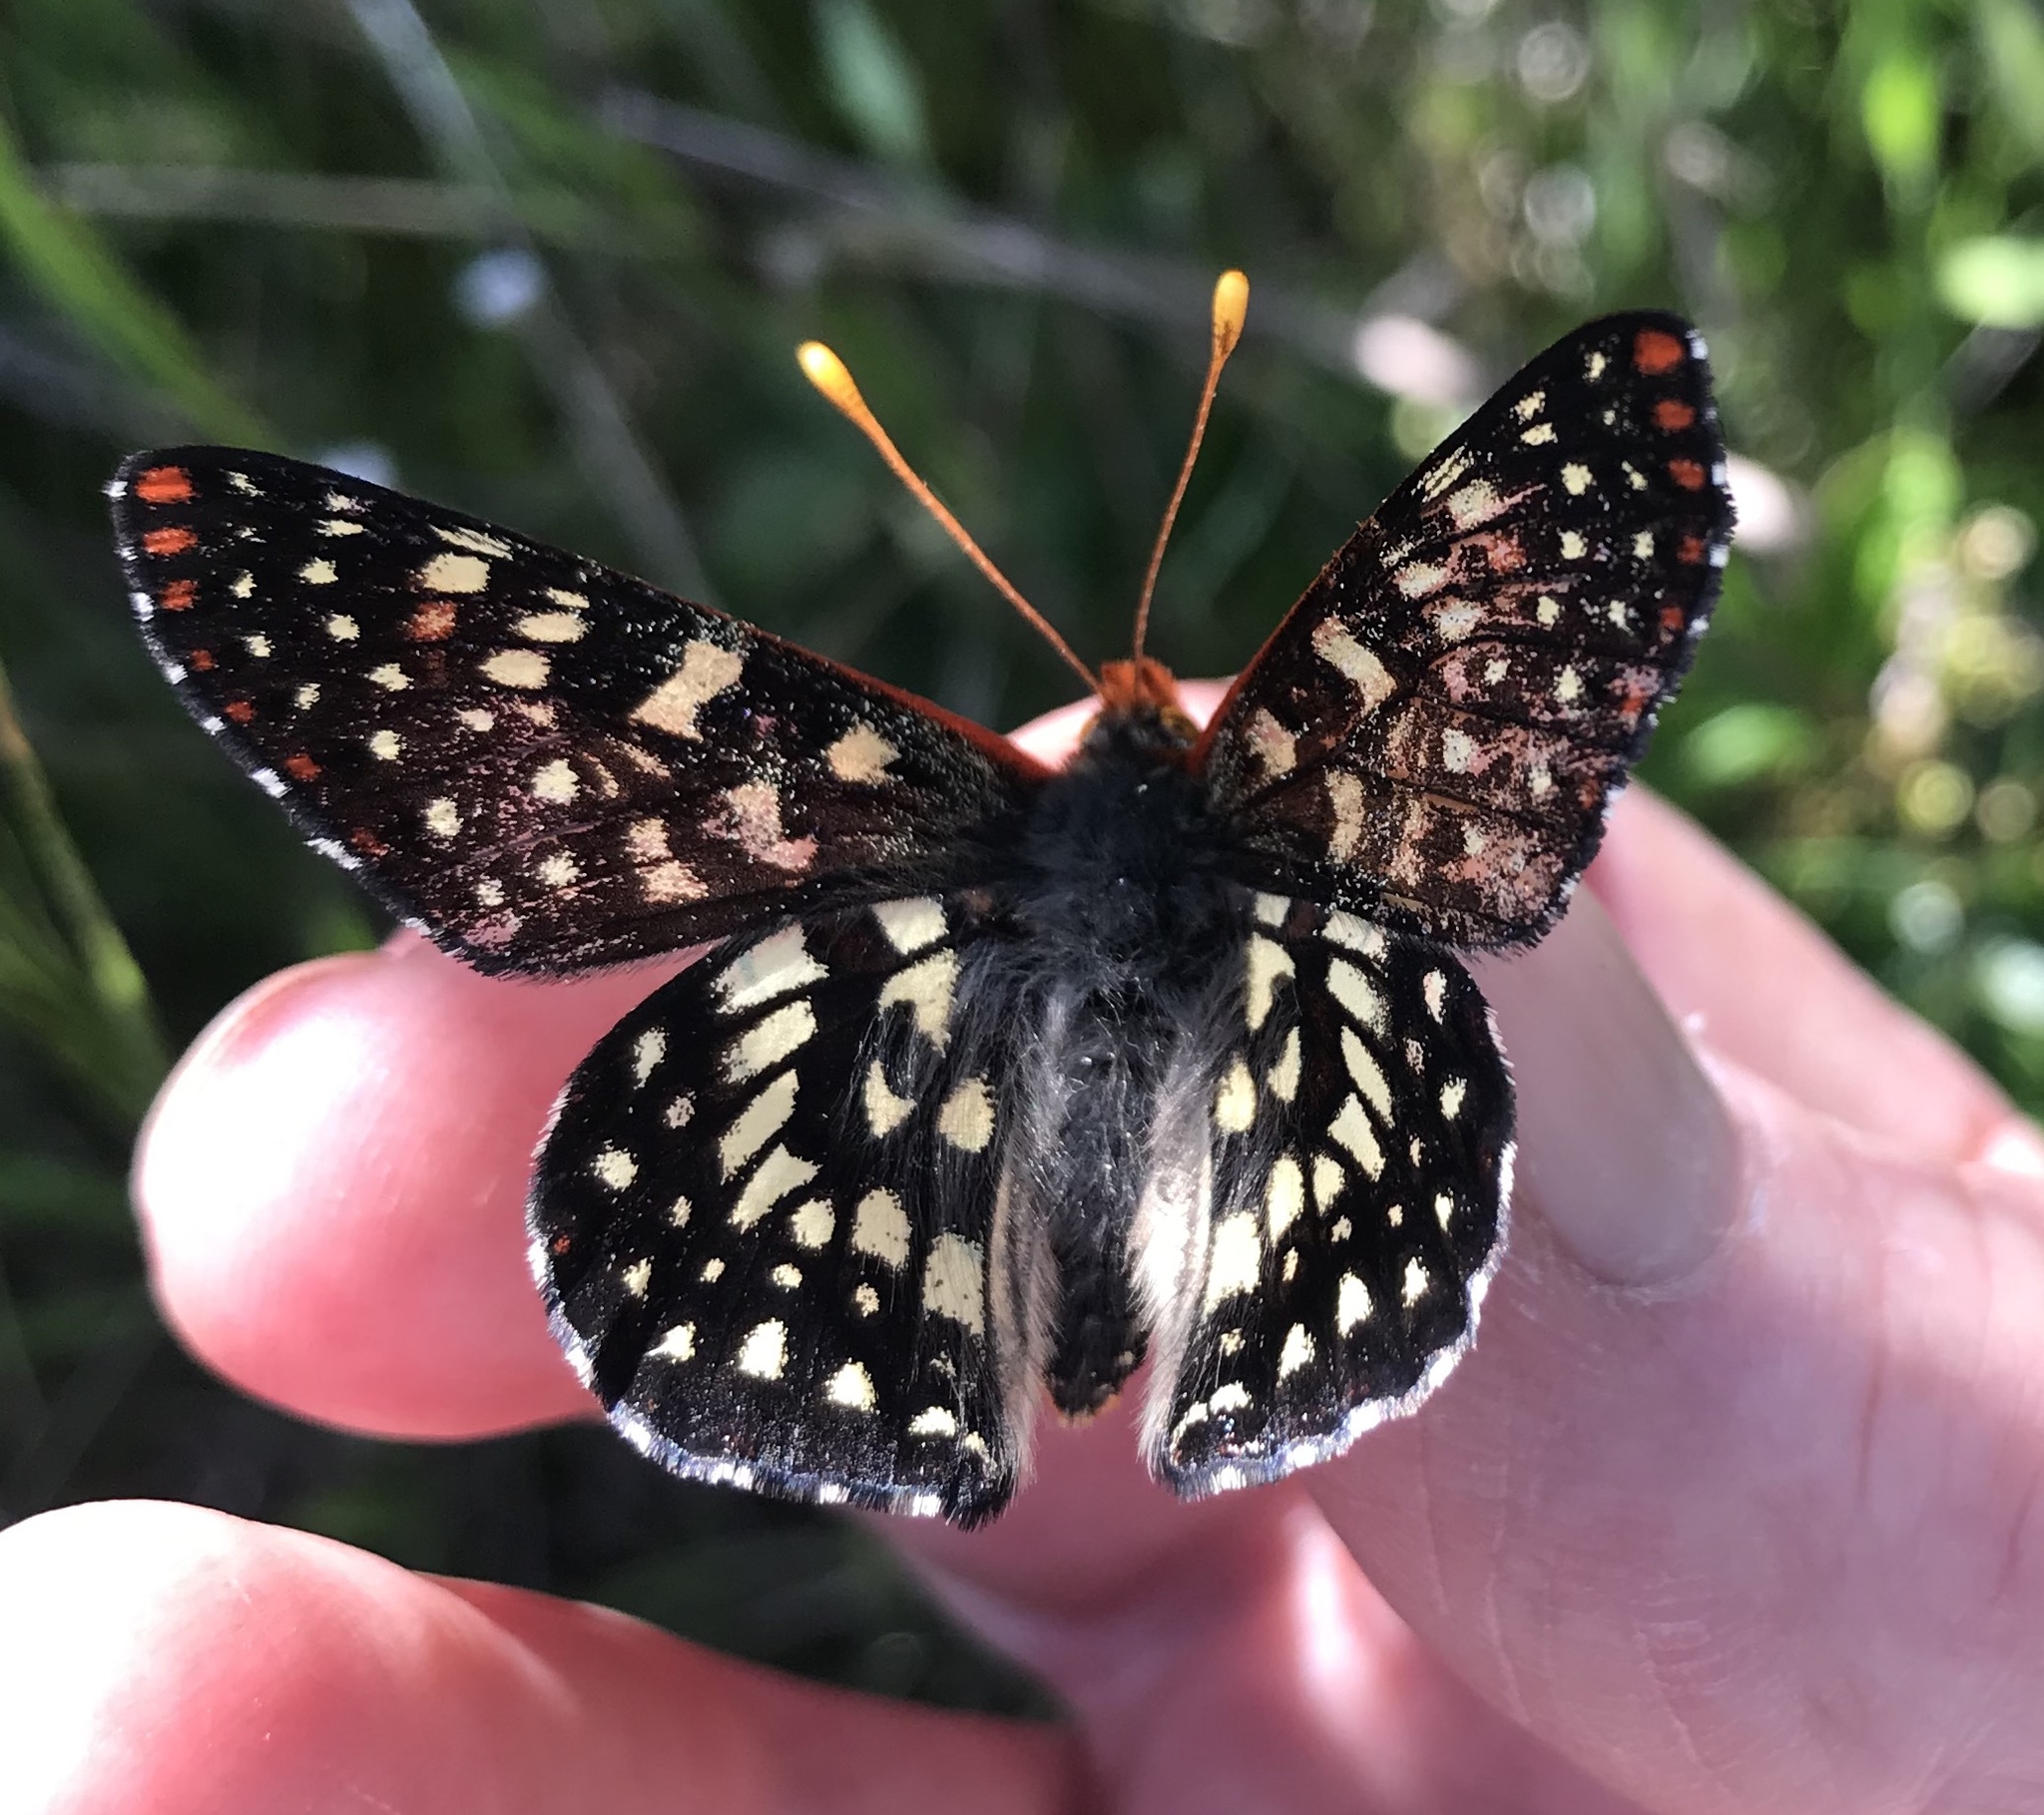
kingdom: Animalia
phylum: Arthropoda
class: Insecta
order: Lepidoptera
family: Nymphalidae
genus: Occidryas
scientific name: Occidryas chalcedona
